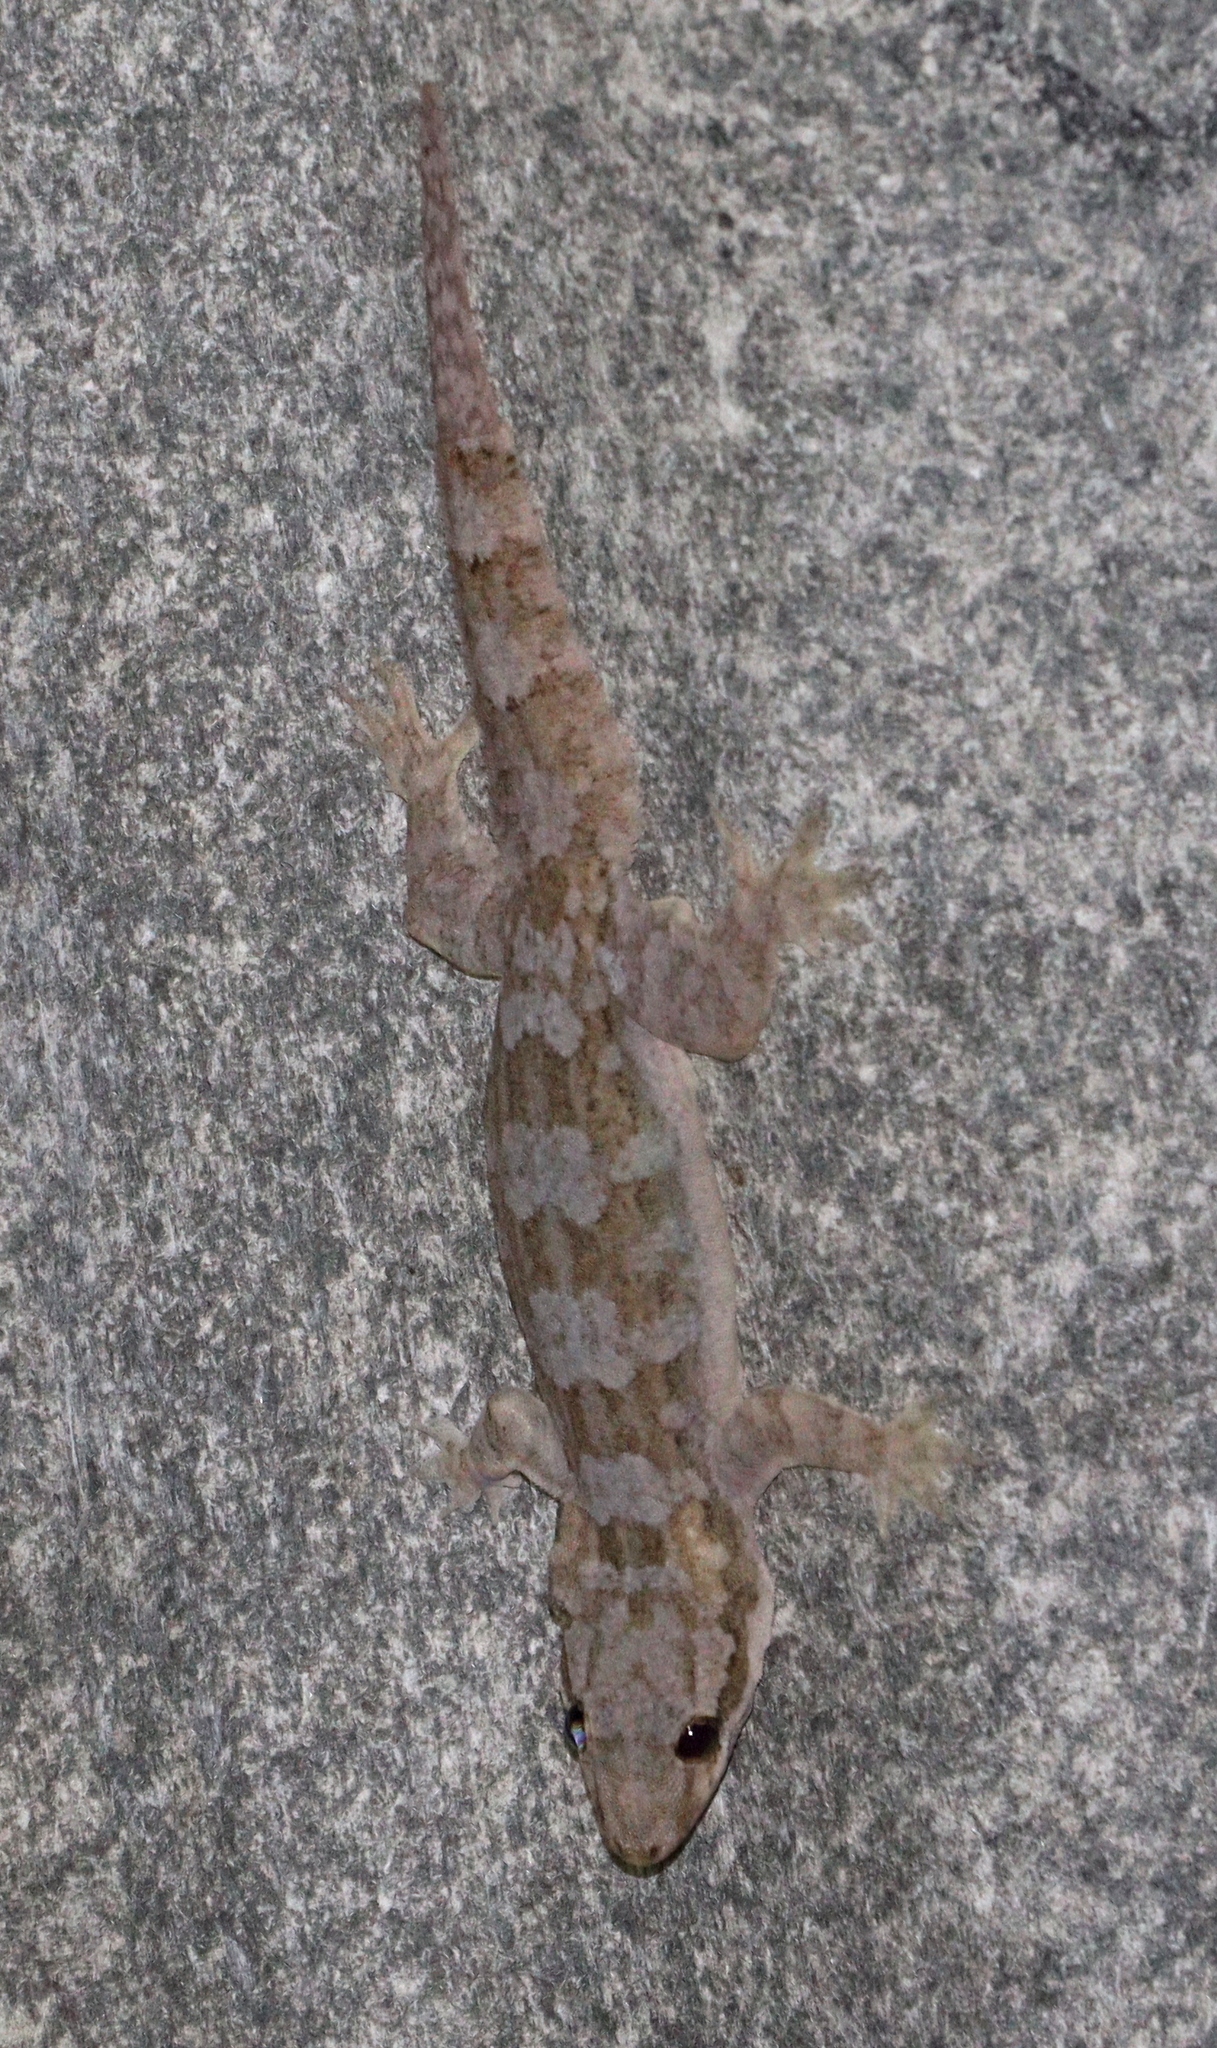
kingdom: Animalia
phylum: Chordata
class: Squamata
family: Gekkonidae
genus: Hemidactylus
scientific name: Hemidactylus platyurus
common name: Flat-tailed house gecko
